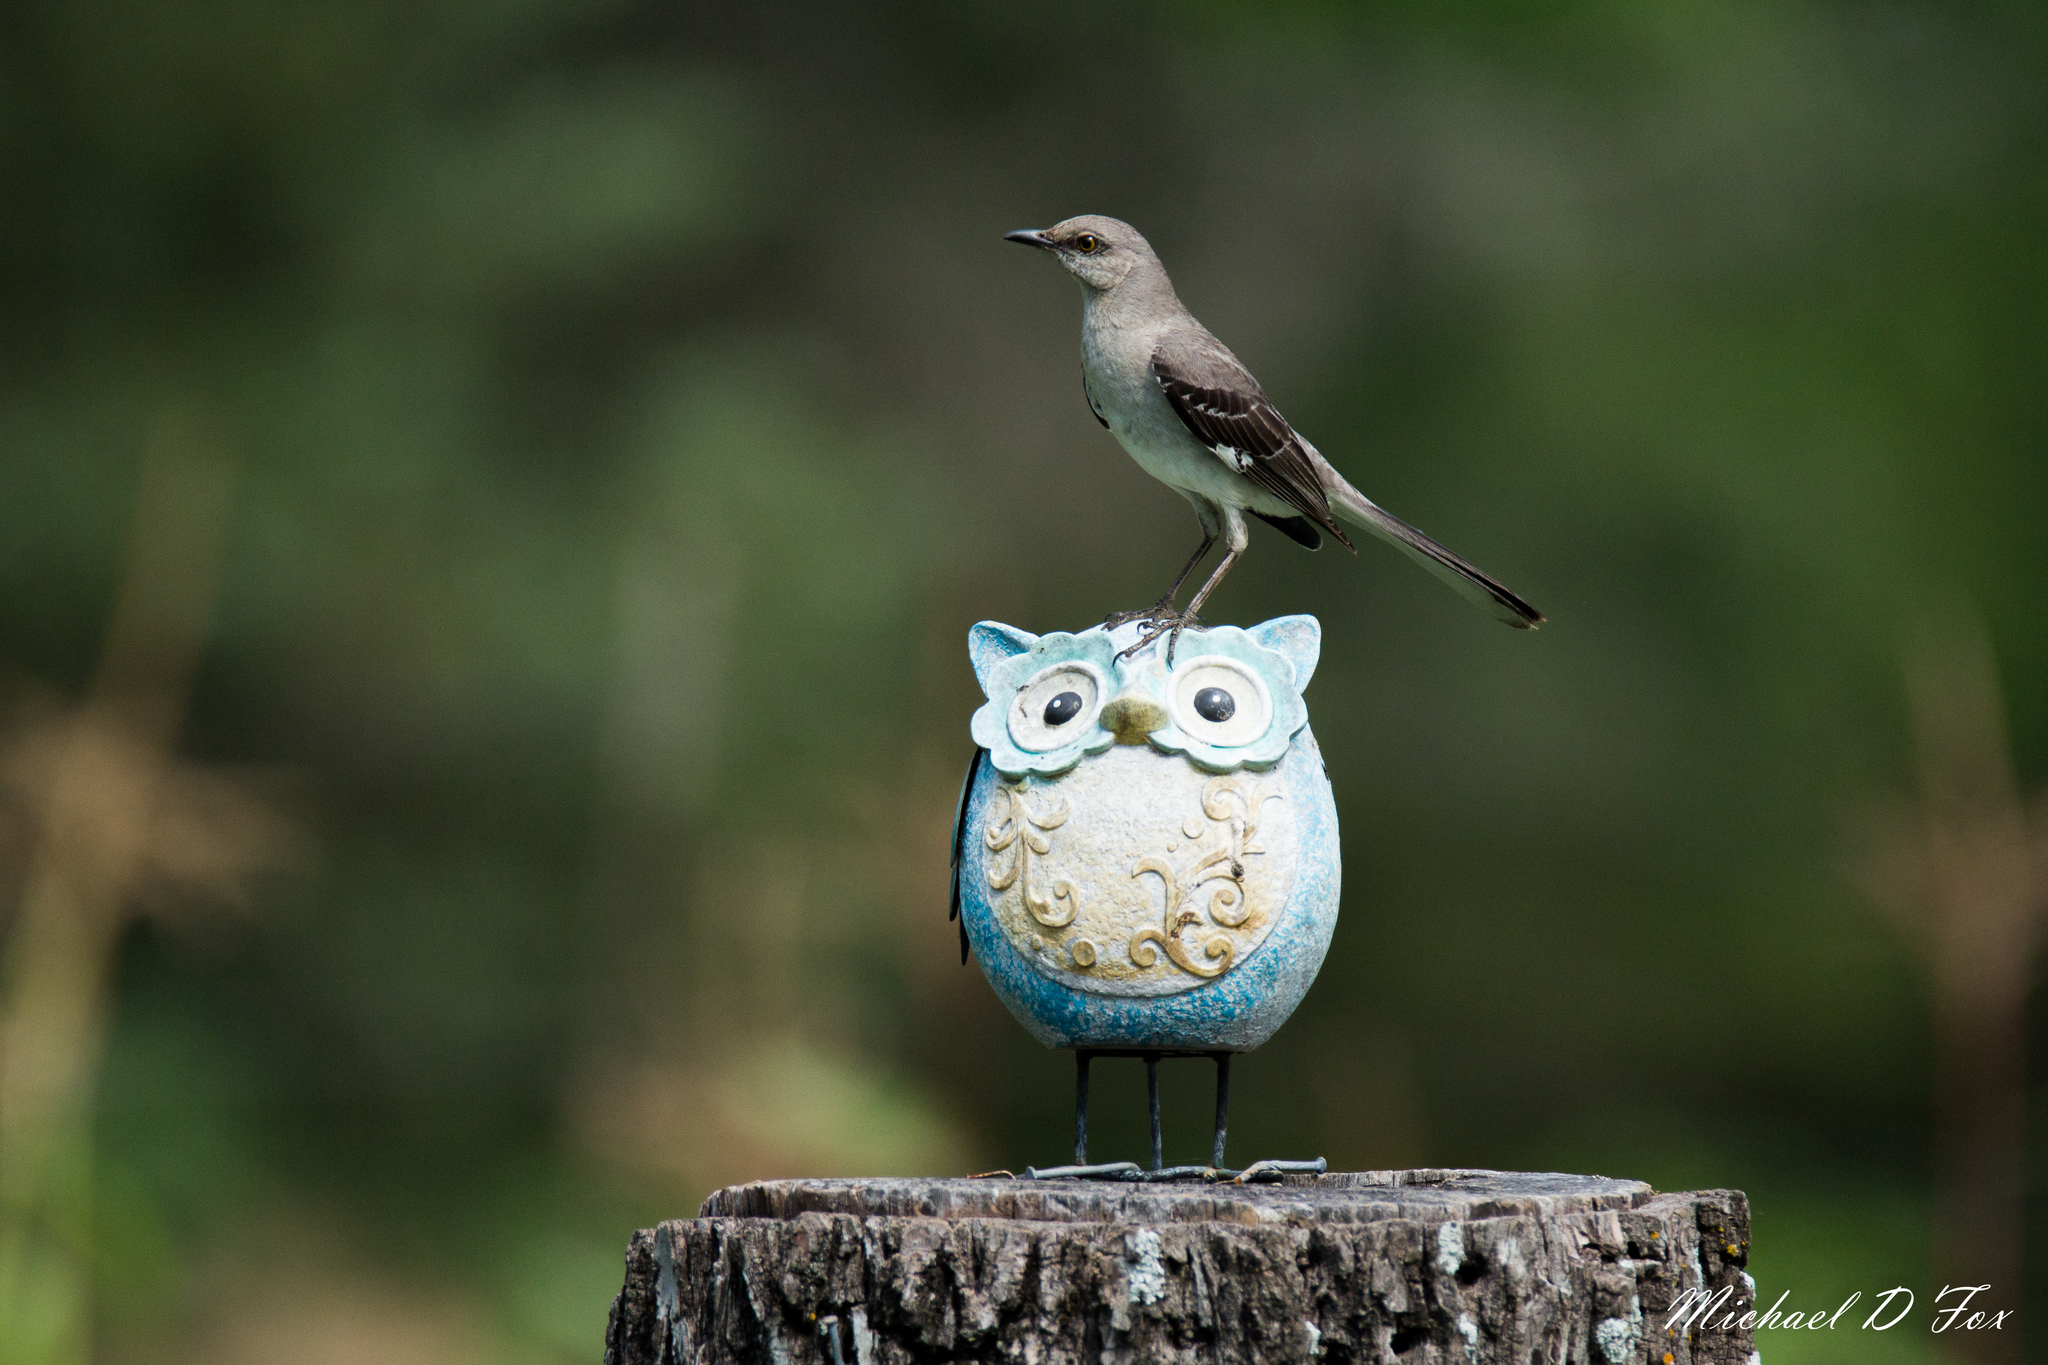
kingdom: Animalia
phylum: Chordata
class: Aves
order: Passeriformes
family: Mimidae
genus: Mimus
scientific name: Mimus polyglottos
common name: Northern mockingbird
